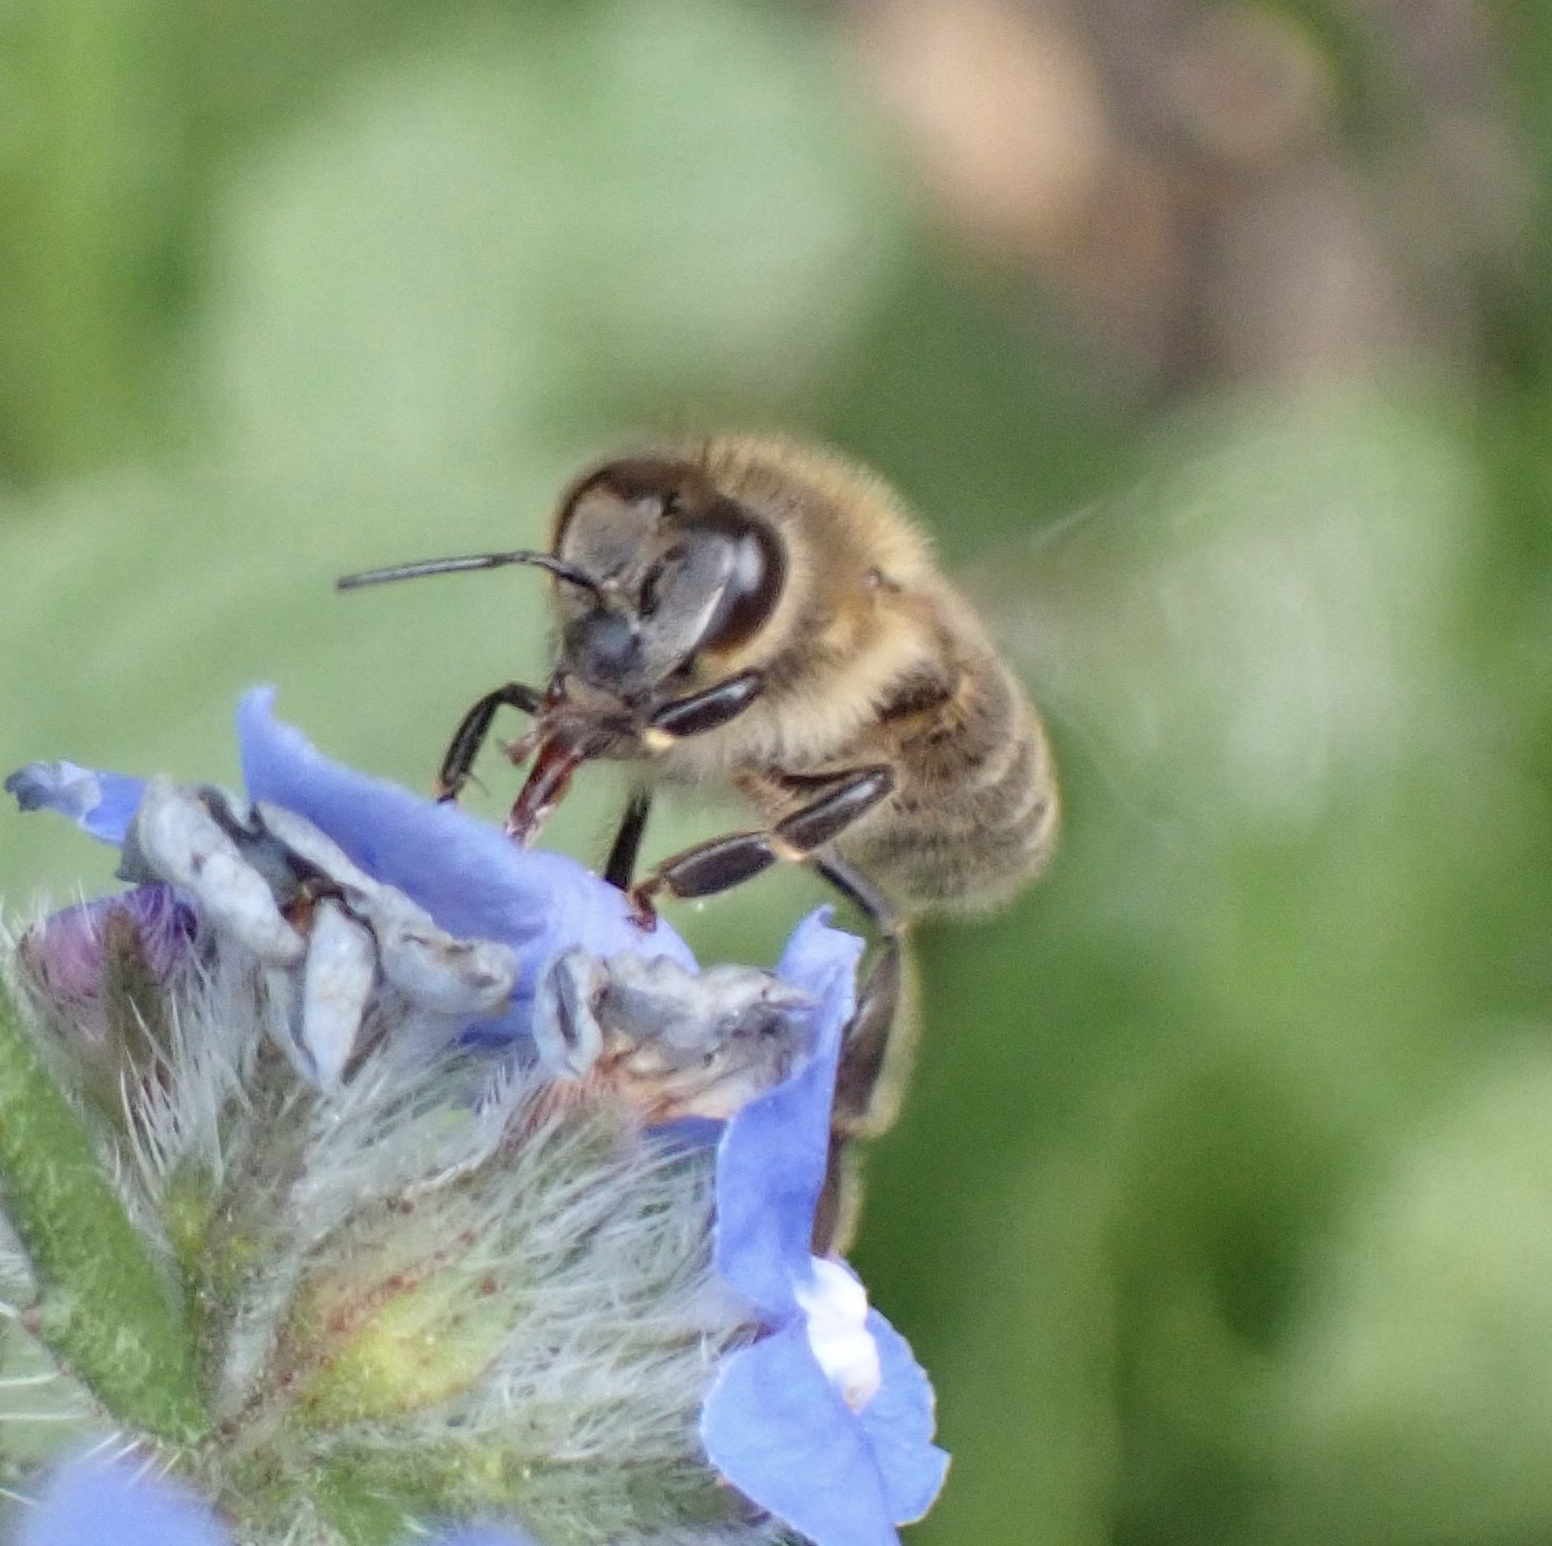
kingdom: Animalia
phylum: Arthropoda
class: Insecta
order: Hymenoptera
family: Apidae
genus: Apis
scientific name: Apis mellifera
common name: Honey bee
